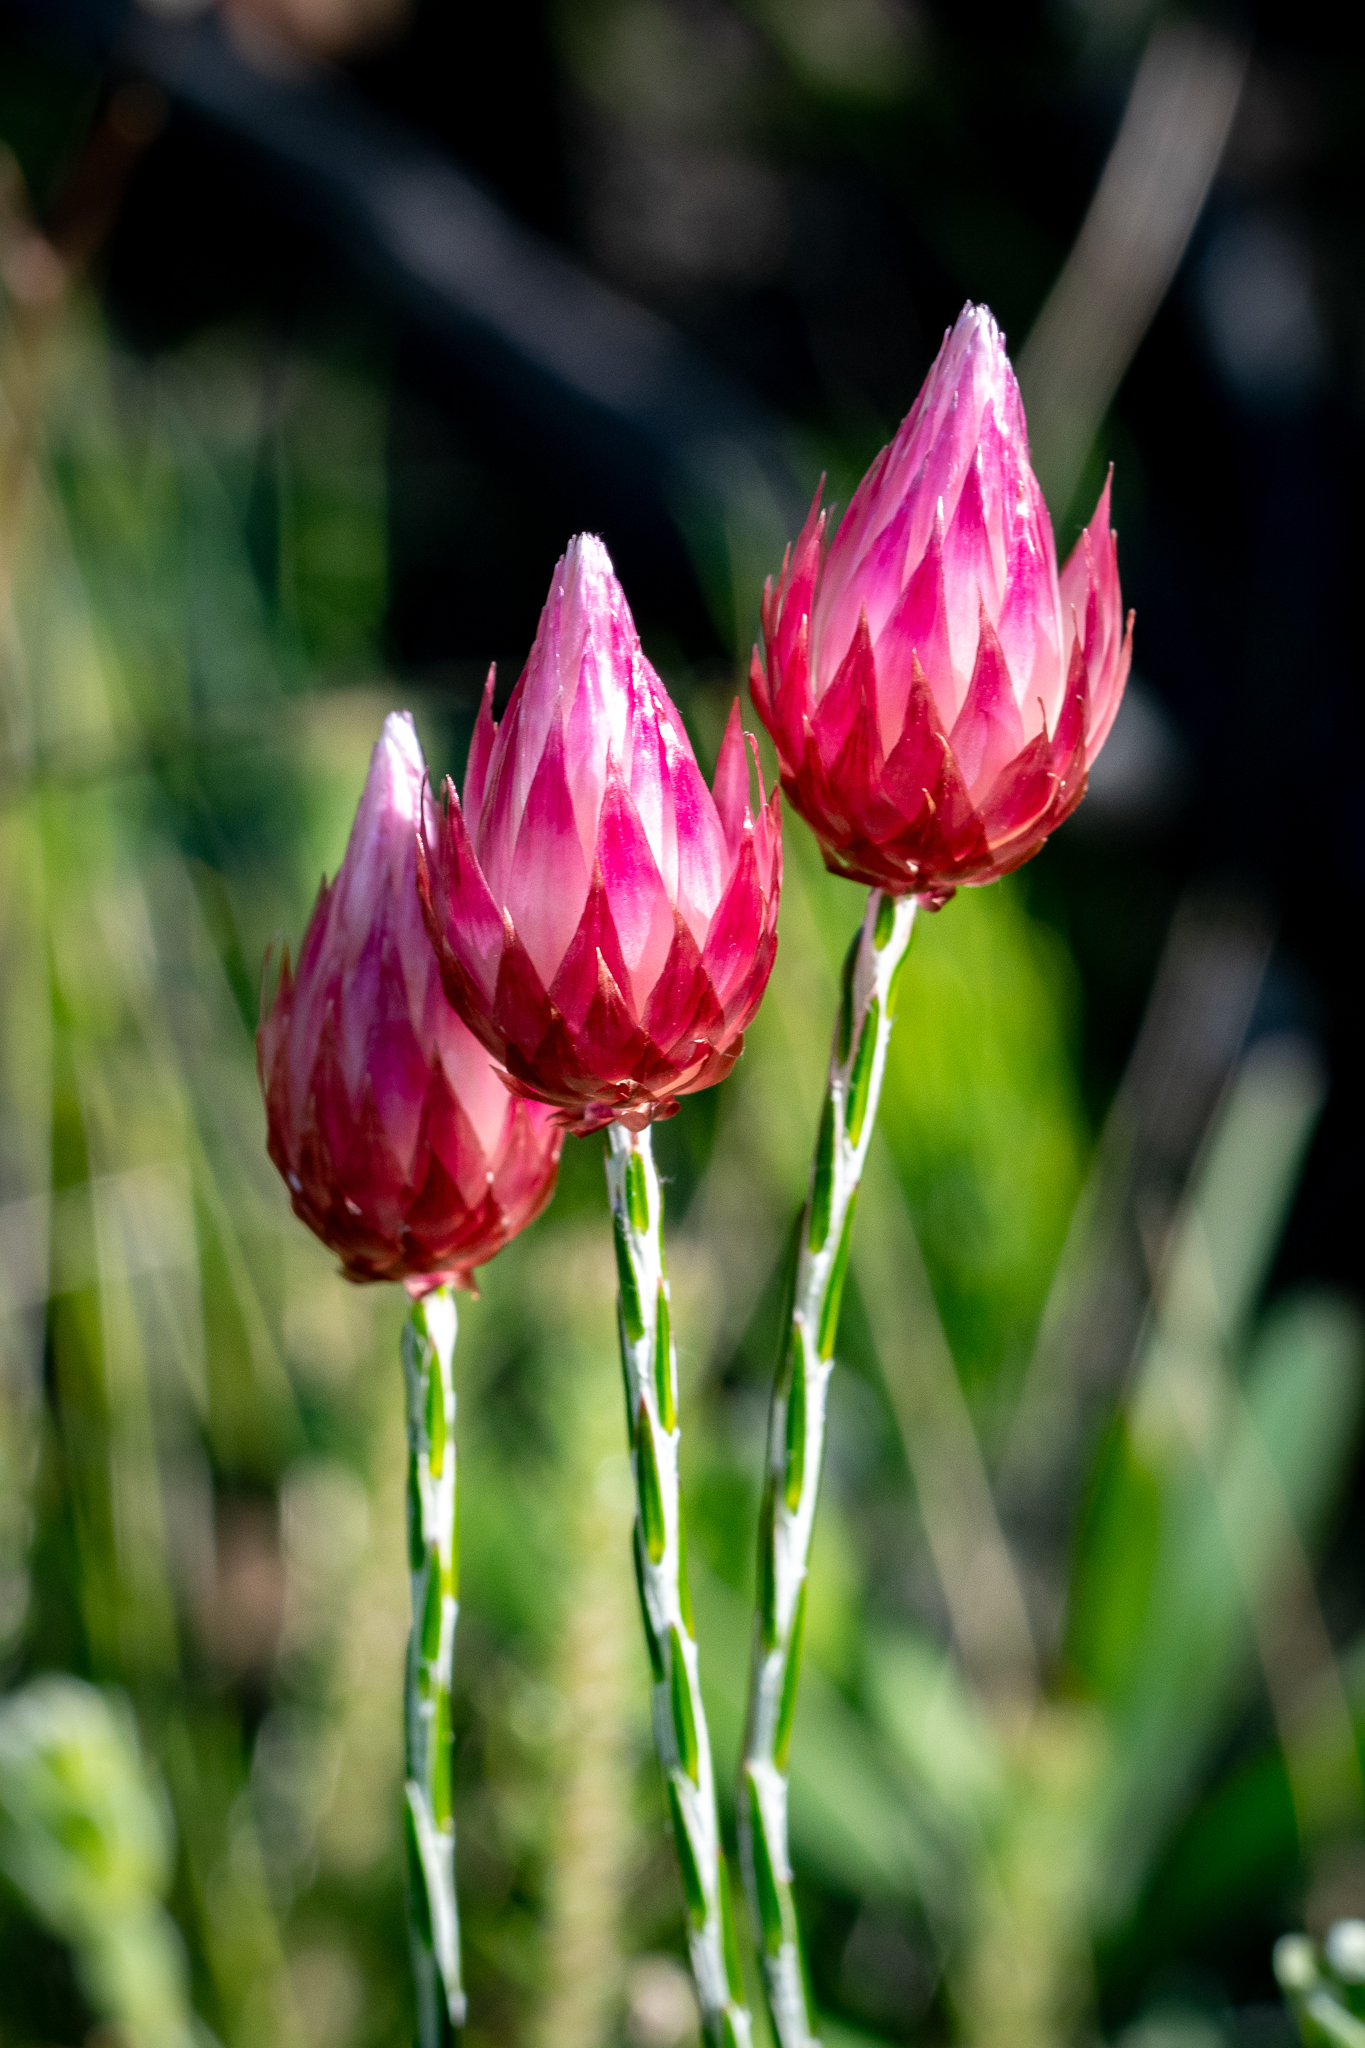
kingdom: Plantae
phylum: Tracheophyta
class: Magnoliopsida
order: Asterales
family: Asteraceae
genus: Edmondia
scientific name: Edmondia sesamoides
